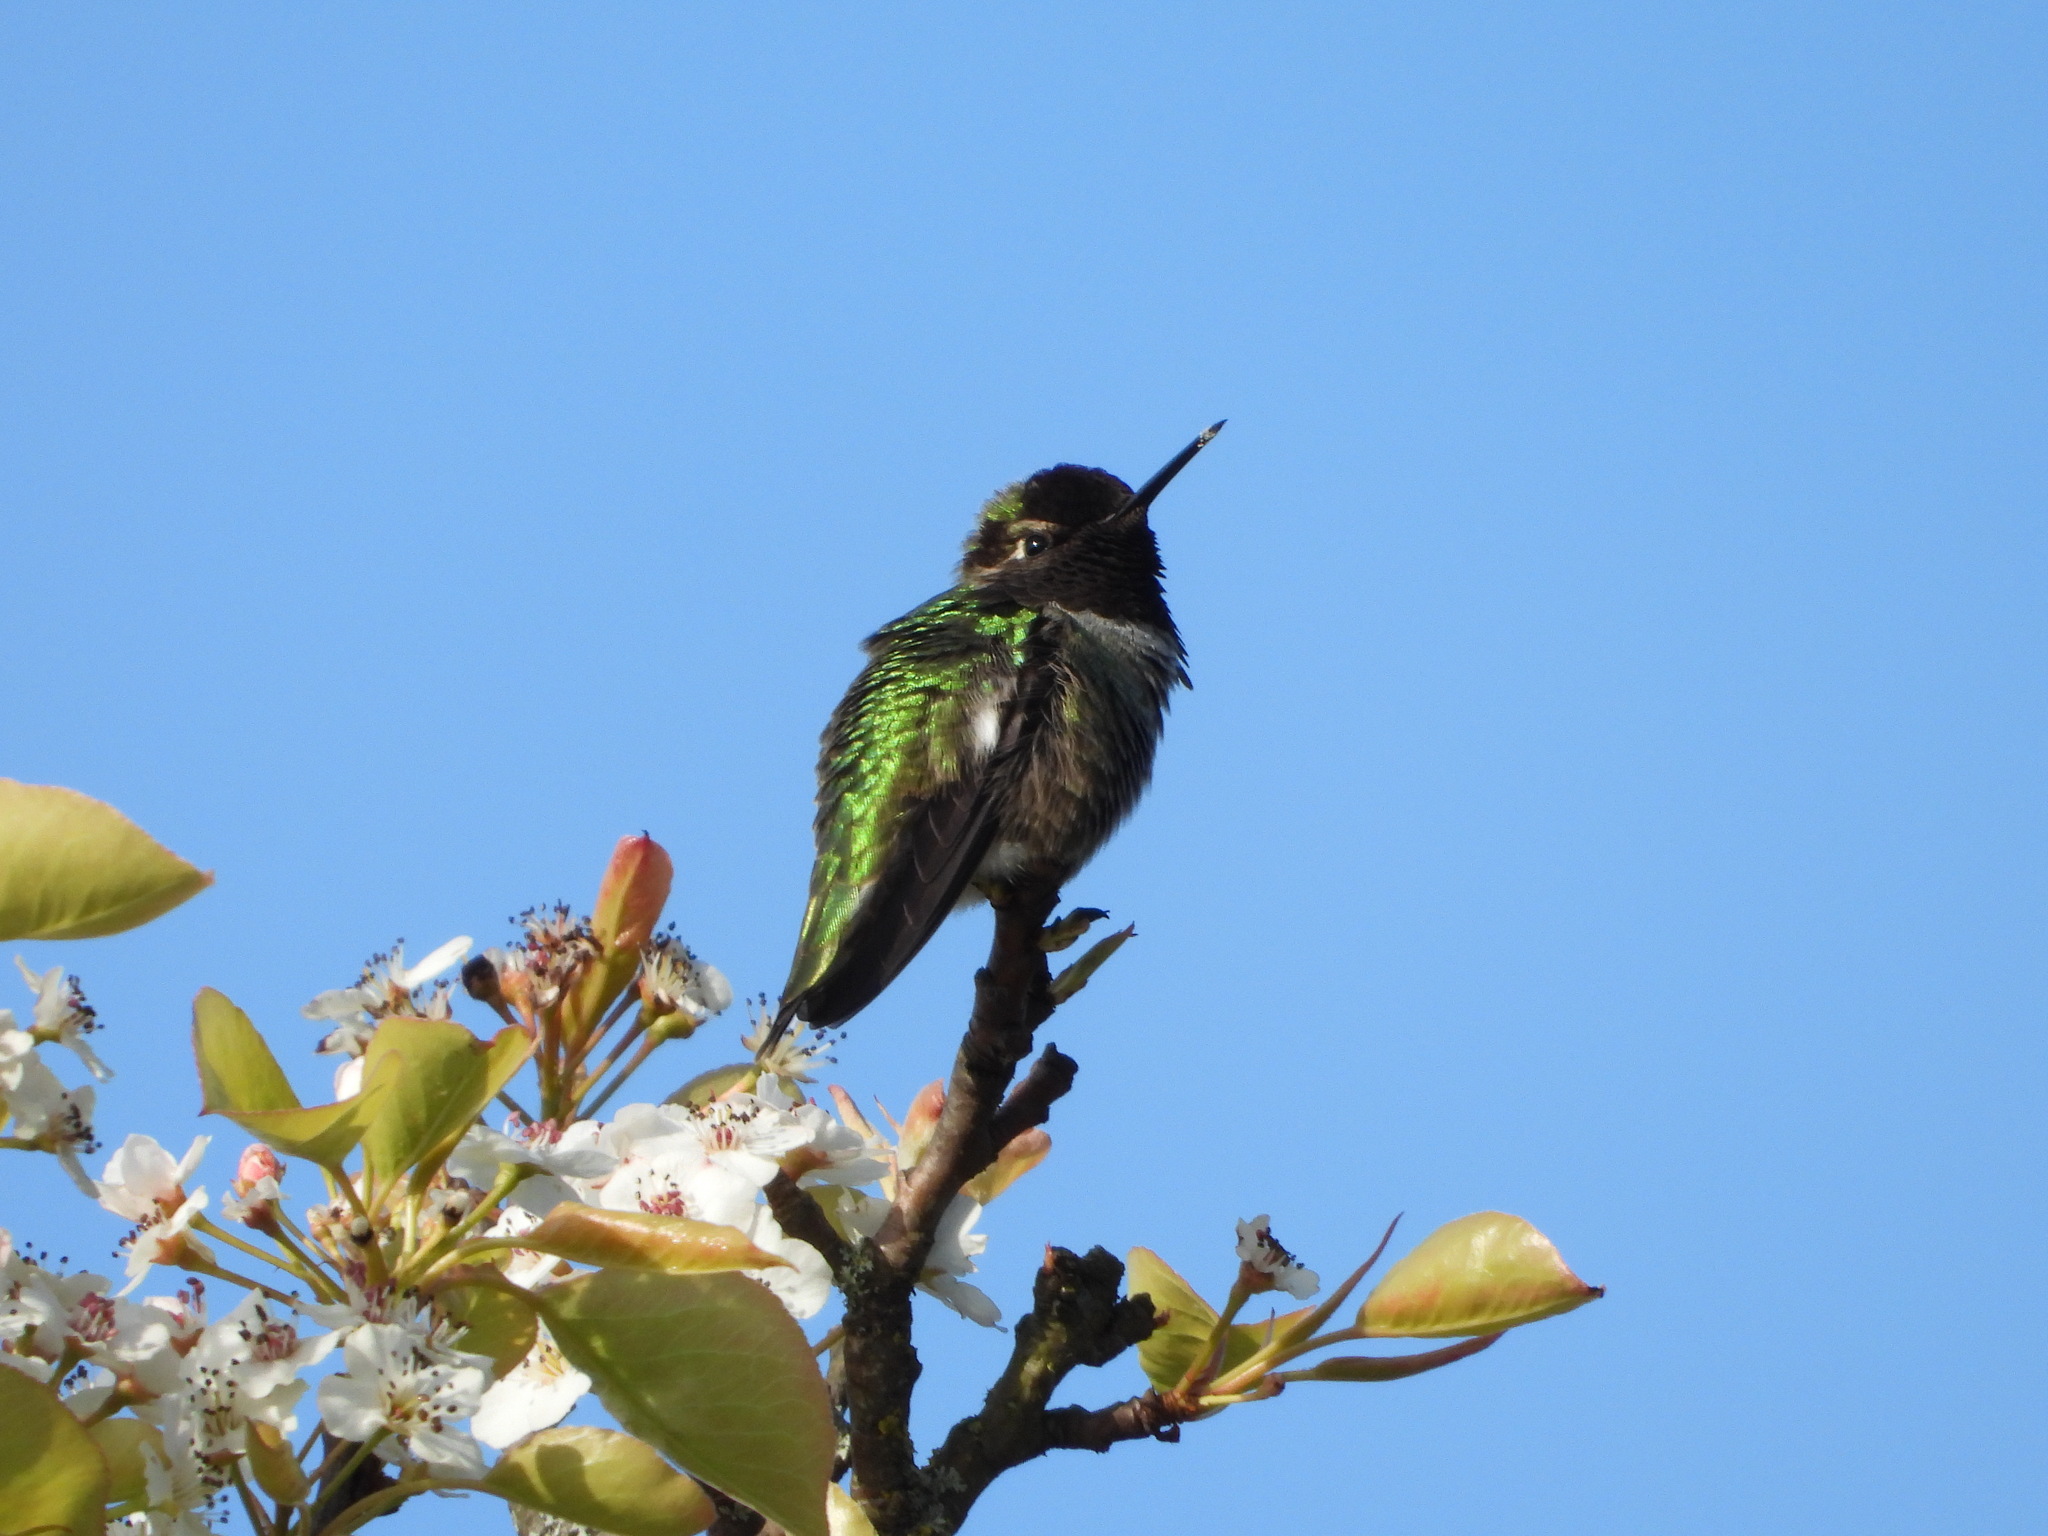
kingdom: Animalia
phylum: Chordata
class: Aves
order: Apodiformes
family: Trochilidae
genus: Calypte
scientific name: Calypte anna
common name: Anna's hummingbird
